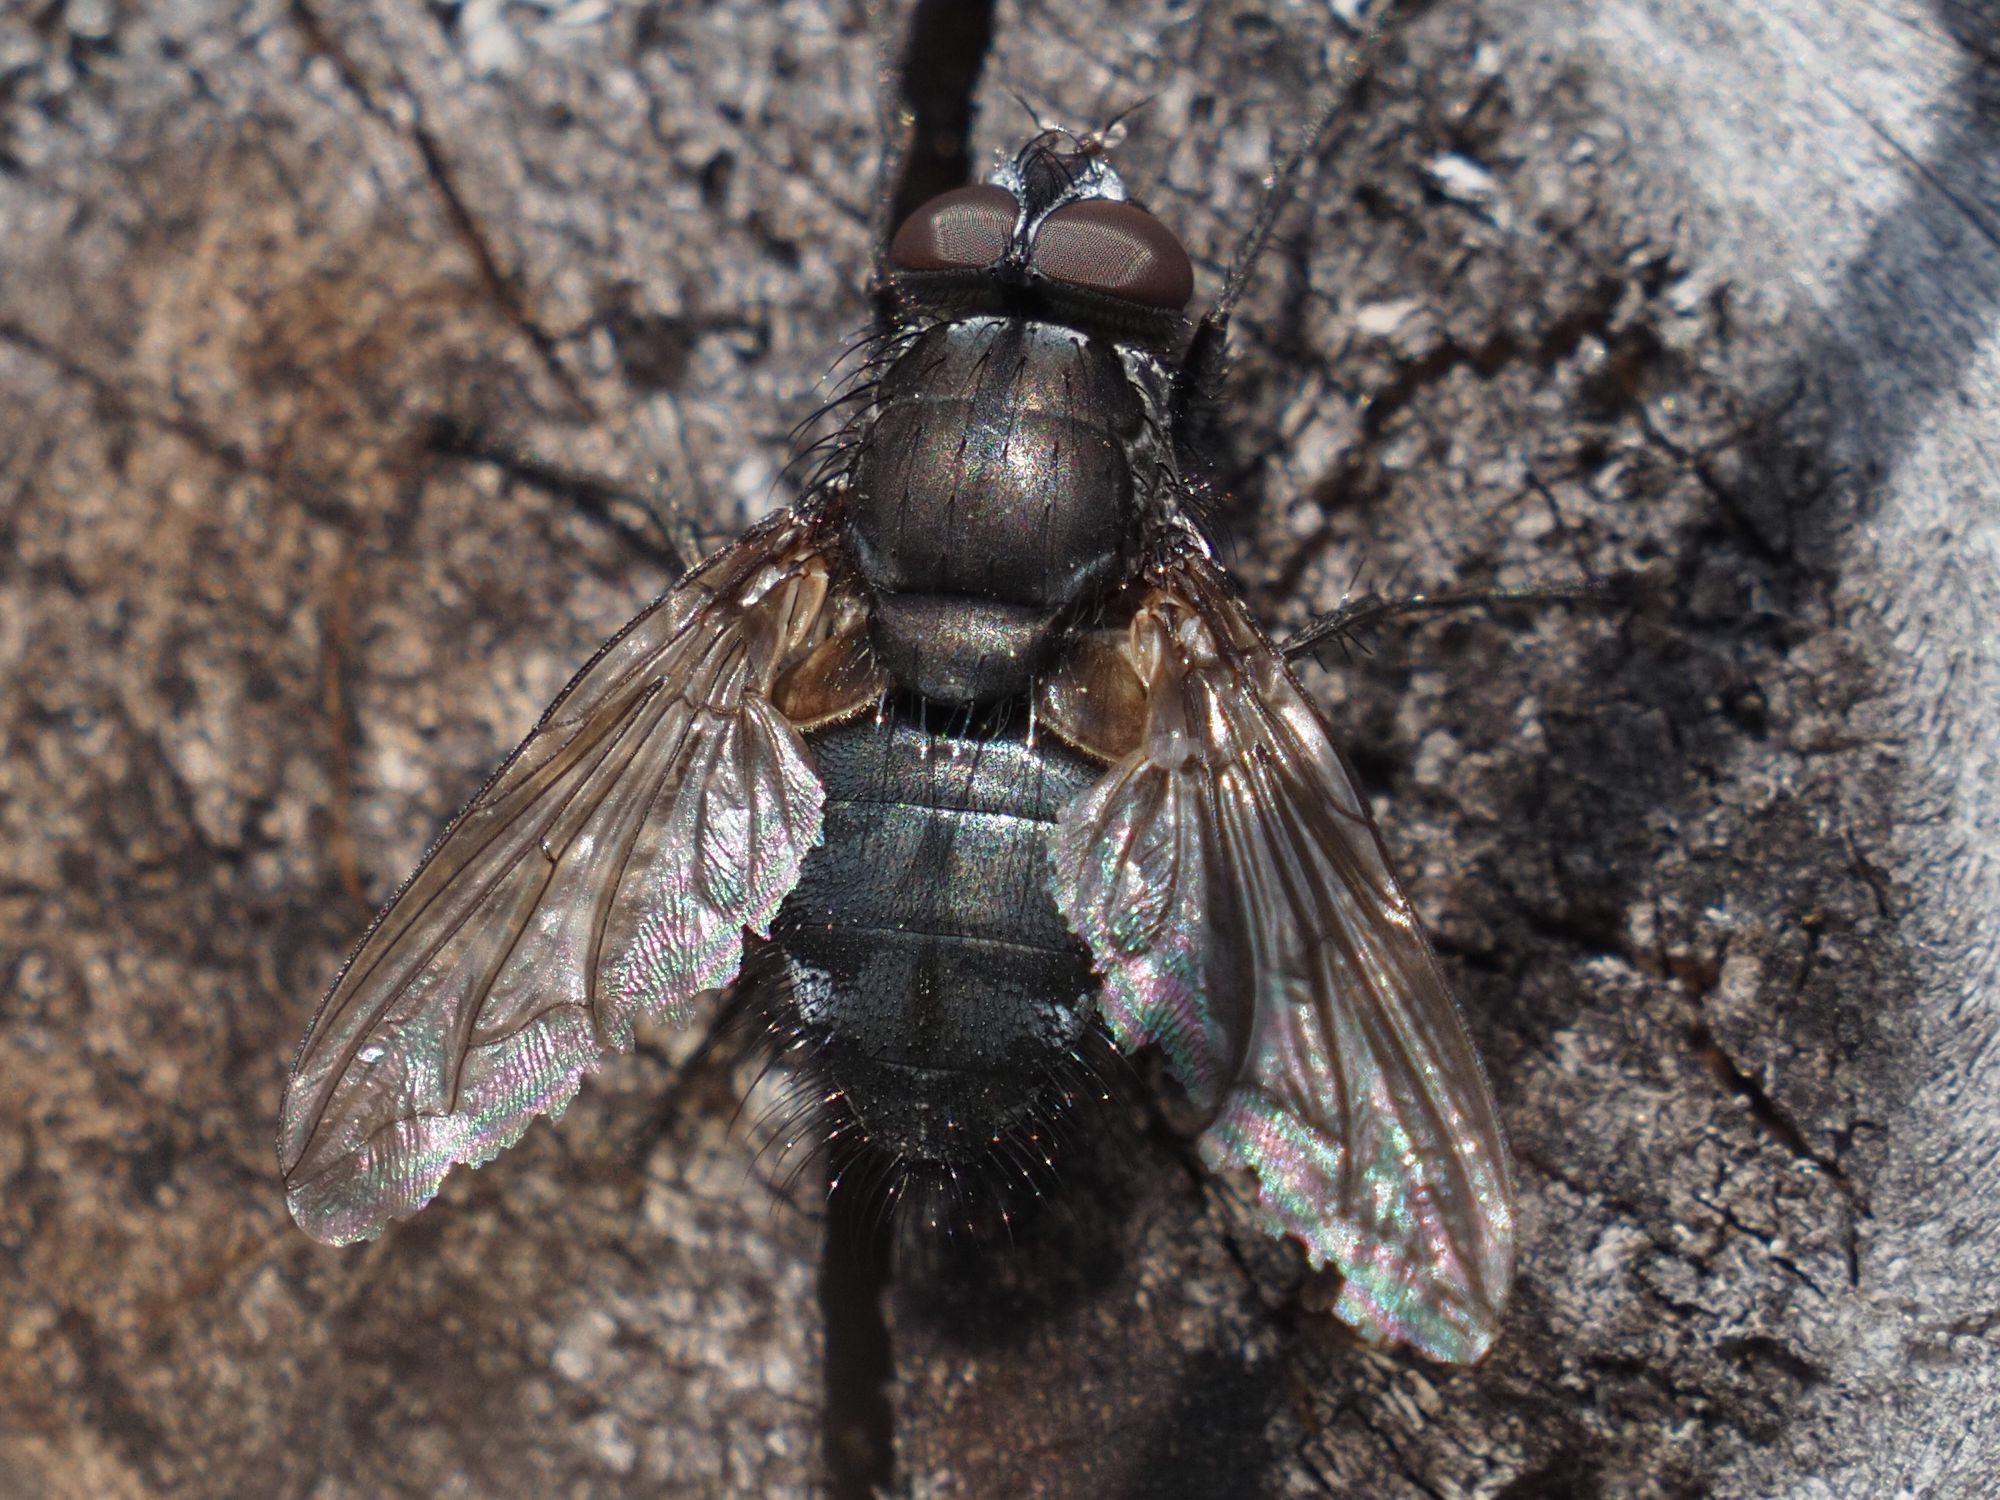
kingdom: Animalia
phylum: Arthropoda
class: Insecta
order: Diptera
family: Polleniidae
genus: Pollenia
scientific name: Pollenia vagabunda
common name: Vagabund cluster fly
